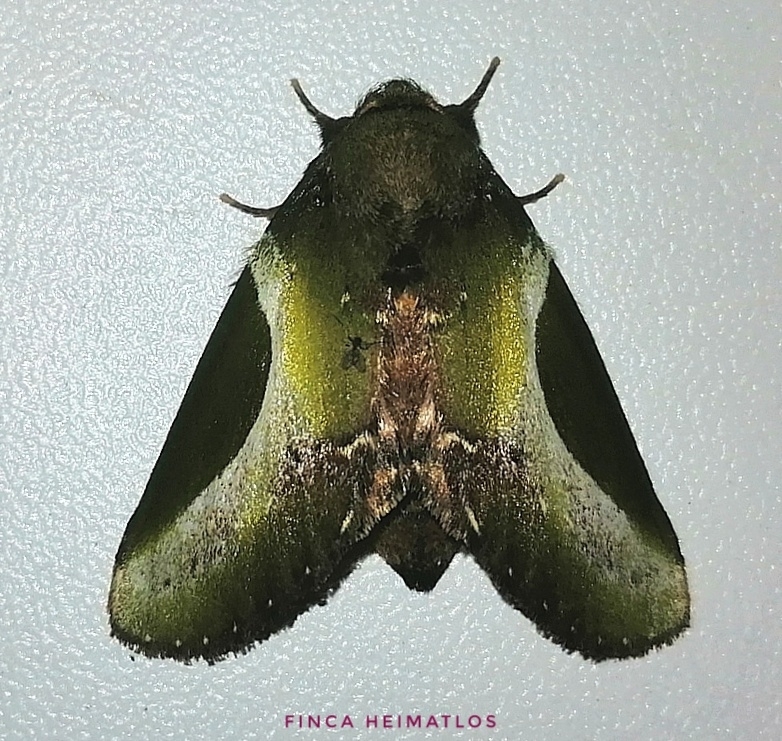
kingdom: Animalia
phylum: Arthropoda
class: Insecta
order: Lepidoptera
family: Notodontidae
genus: Disphragis
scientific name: Disphragis splendens
